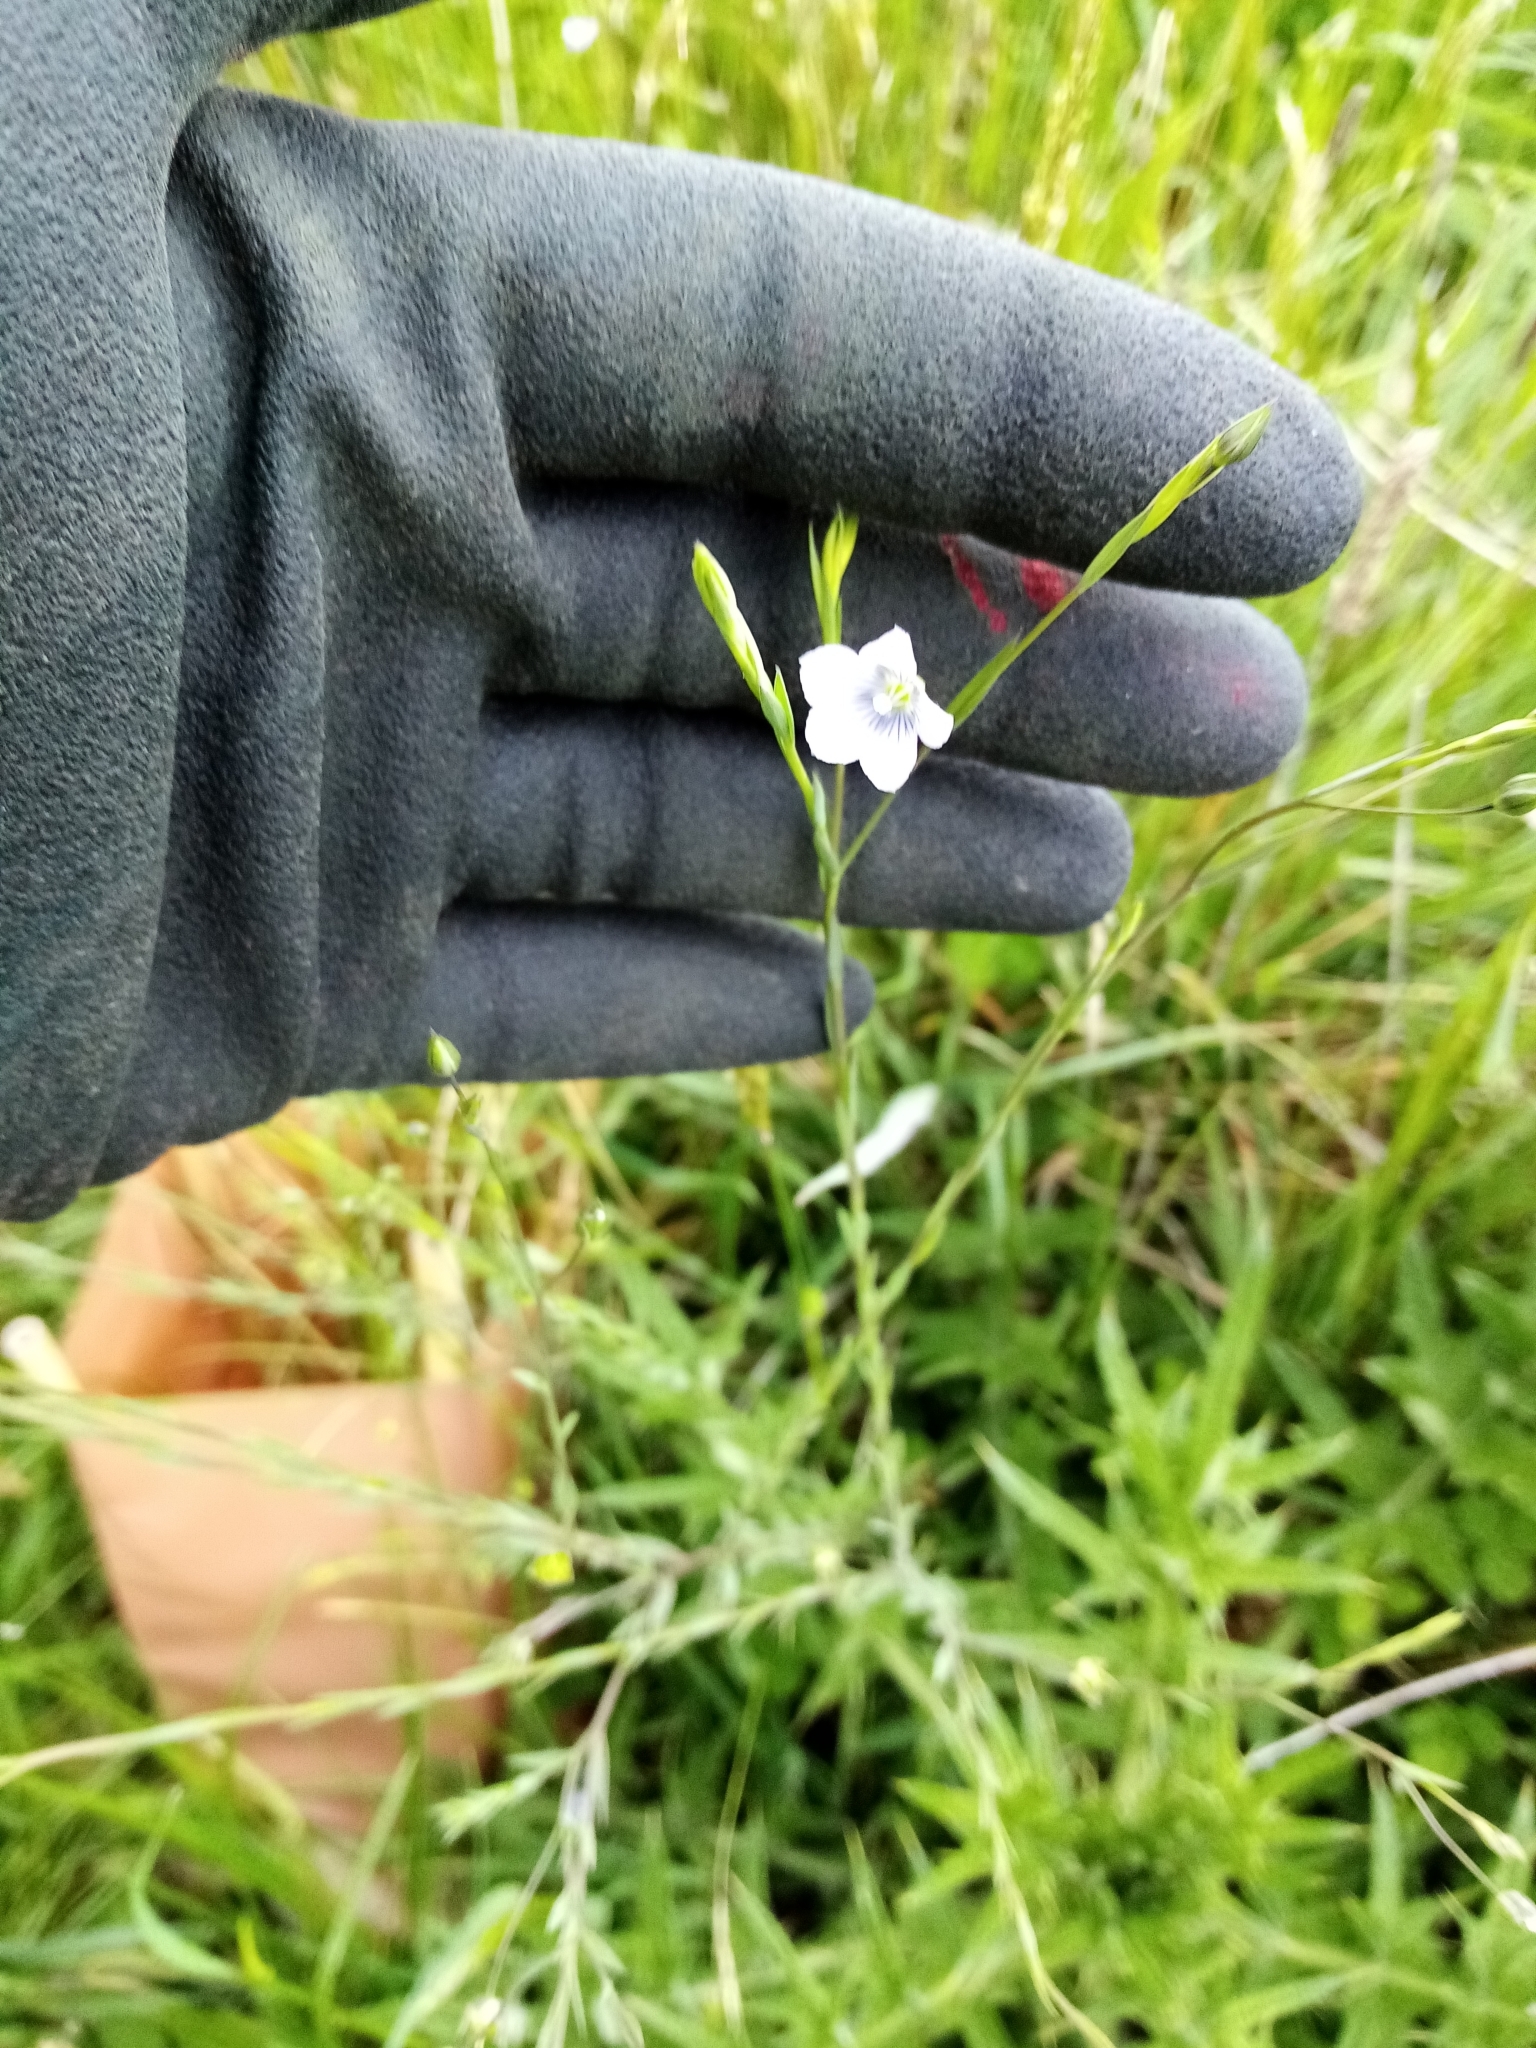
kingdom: Plantae
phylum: Tracheophyta
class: Magnoliopsida
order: Malpighiales
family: Linaceae
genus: Linum
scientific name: Linum bienne
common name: Pale flax
